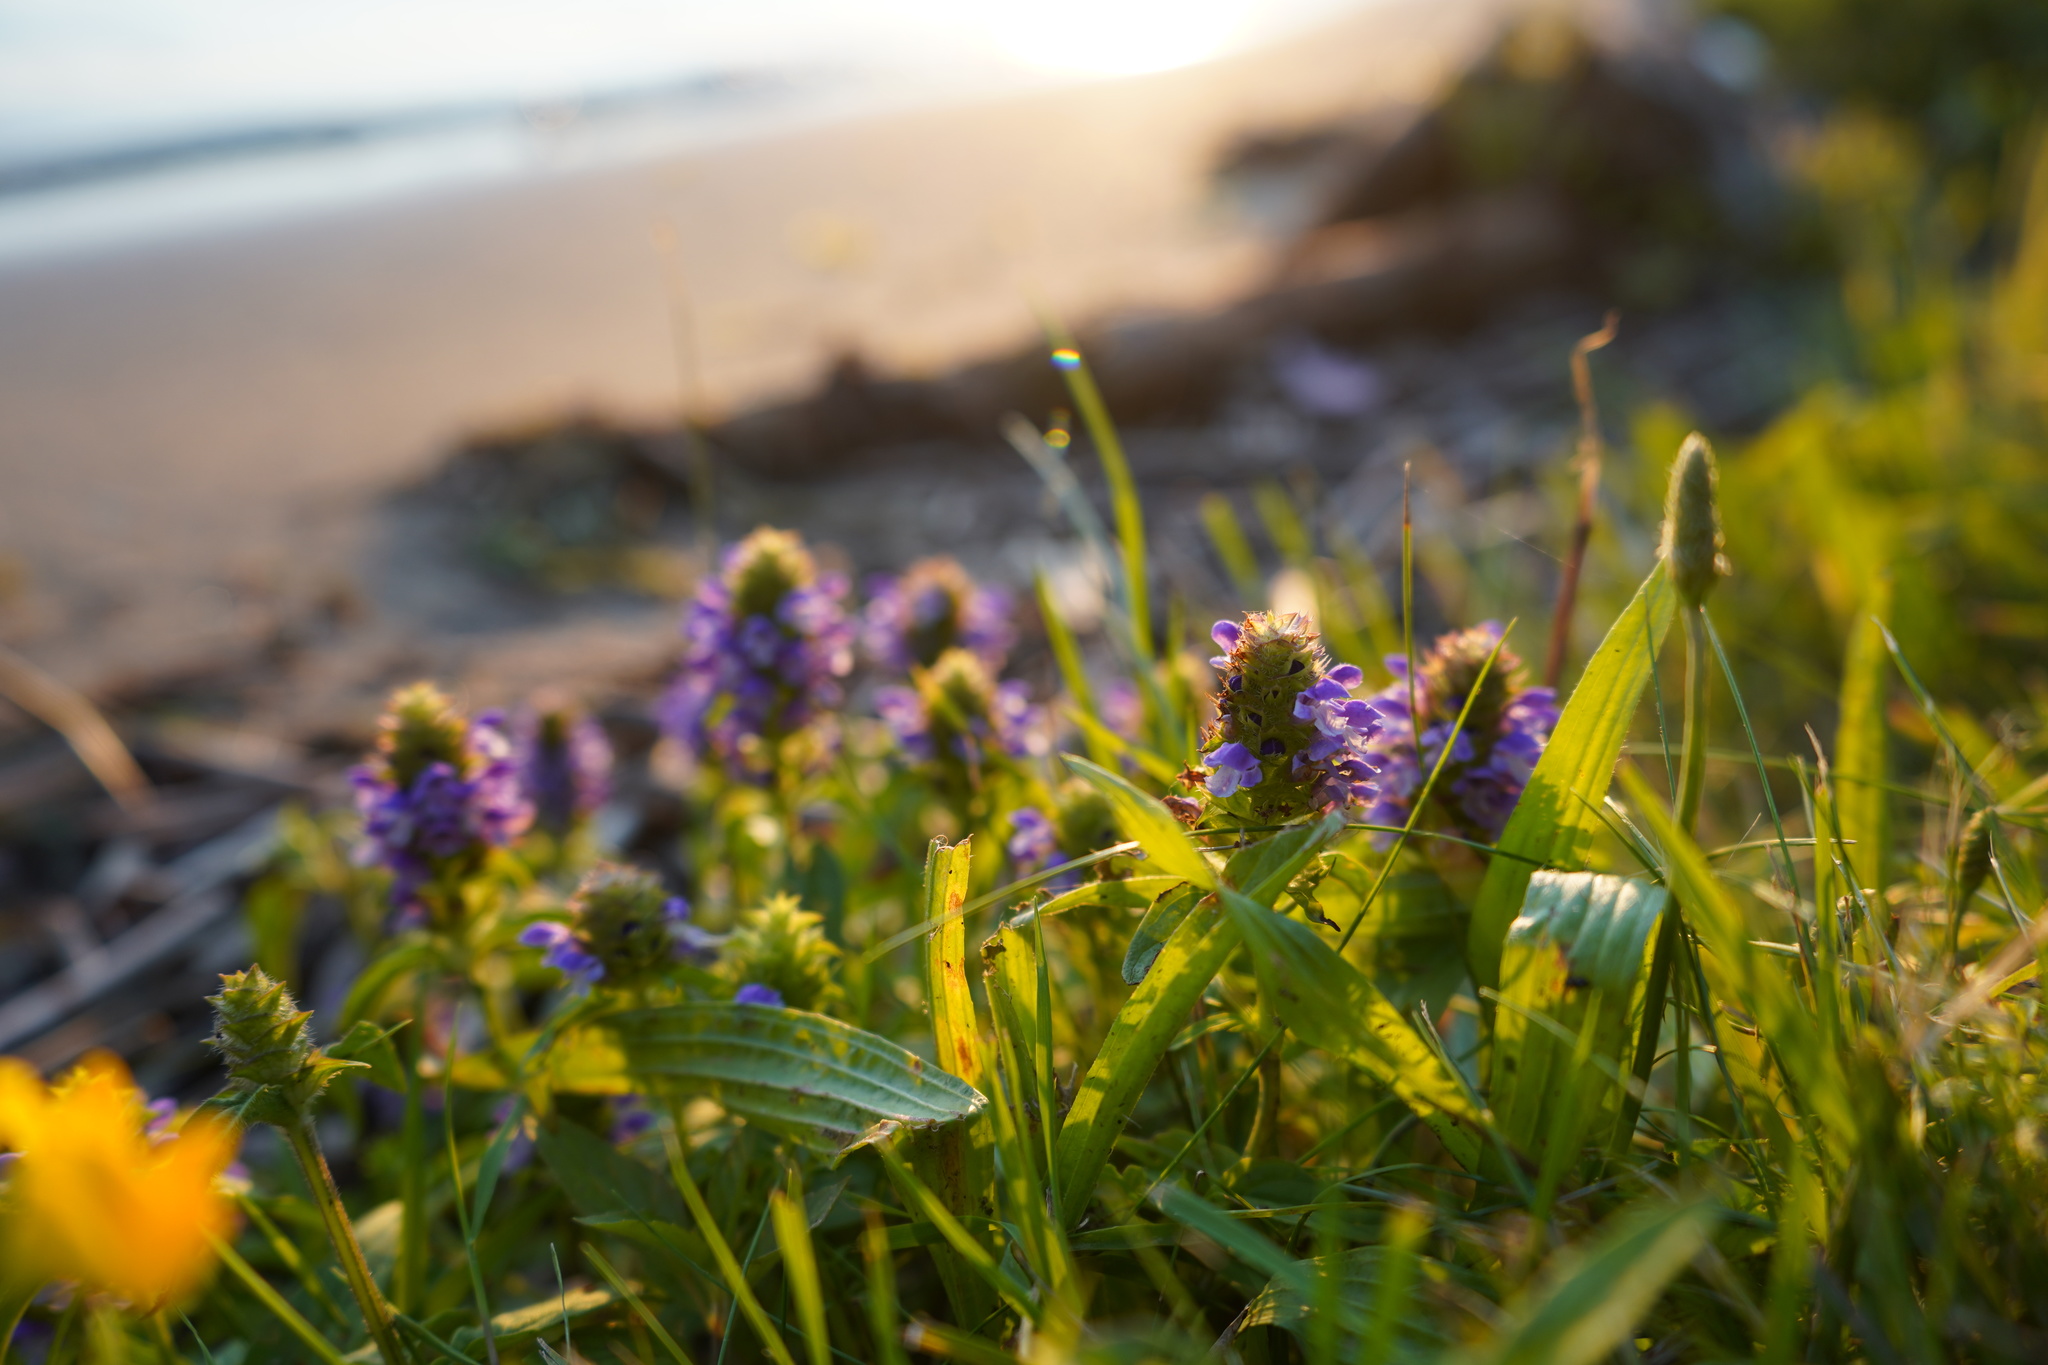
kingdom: Plantae
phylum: Tracheophyta
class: Magnoliopsida
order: Lamiales
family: Lamiaceae
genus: Prunella
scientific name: Prunella vulgaris
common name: Heal-all
